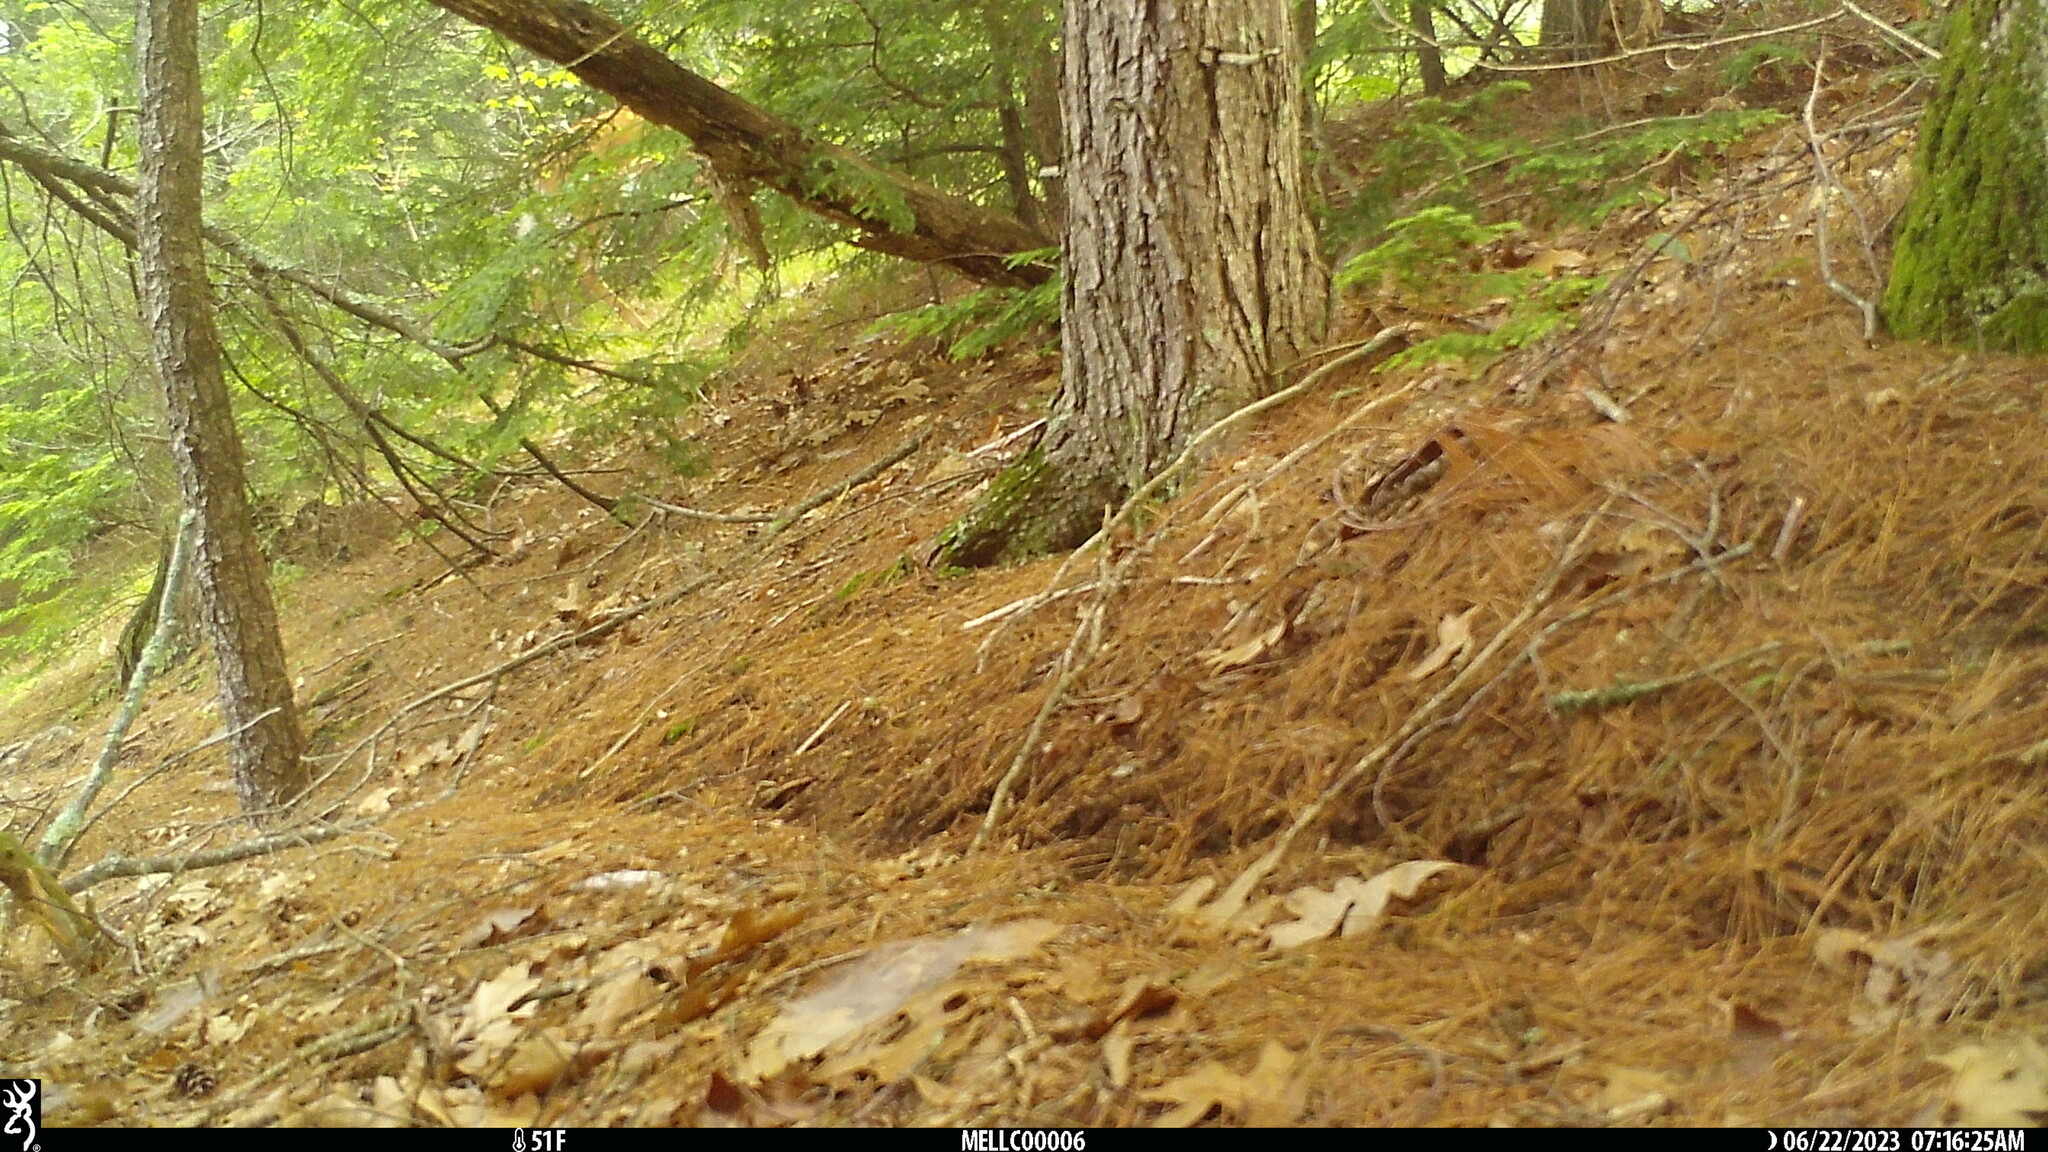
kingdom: Animalia
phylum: Chordata
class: Mammalia
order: Artiodactyla
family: Cervidae
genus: Odocoileus
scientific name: Odocoileus virginianus
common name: White-tailed deer
